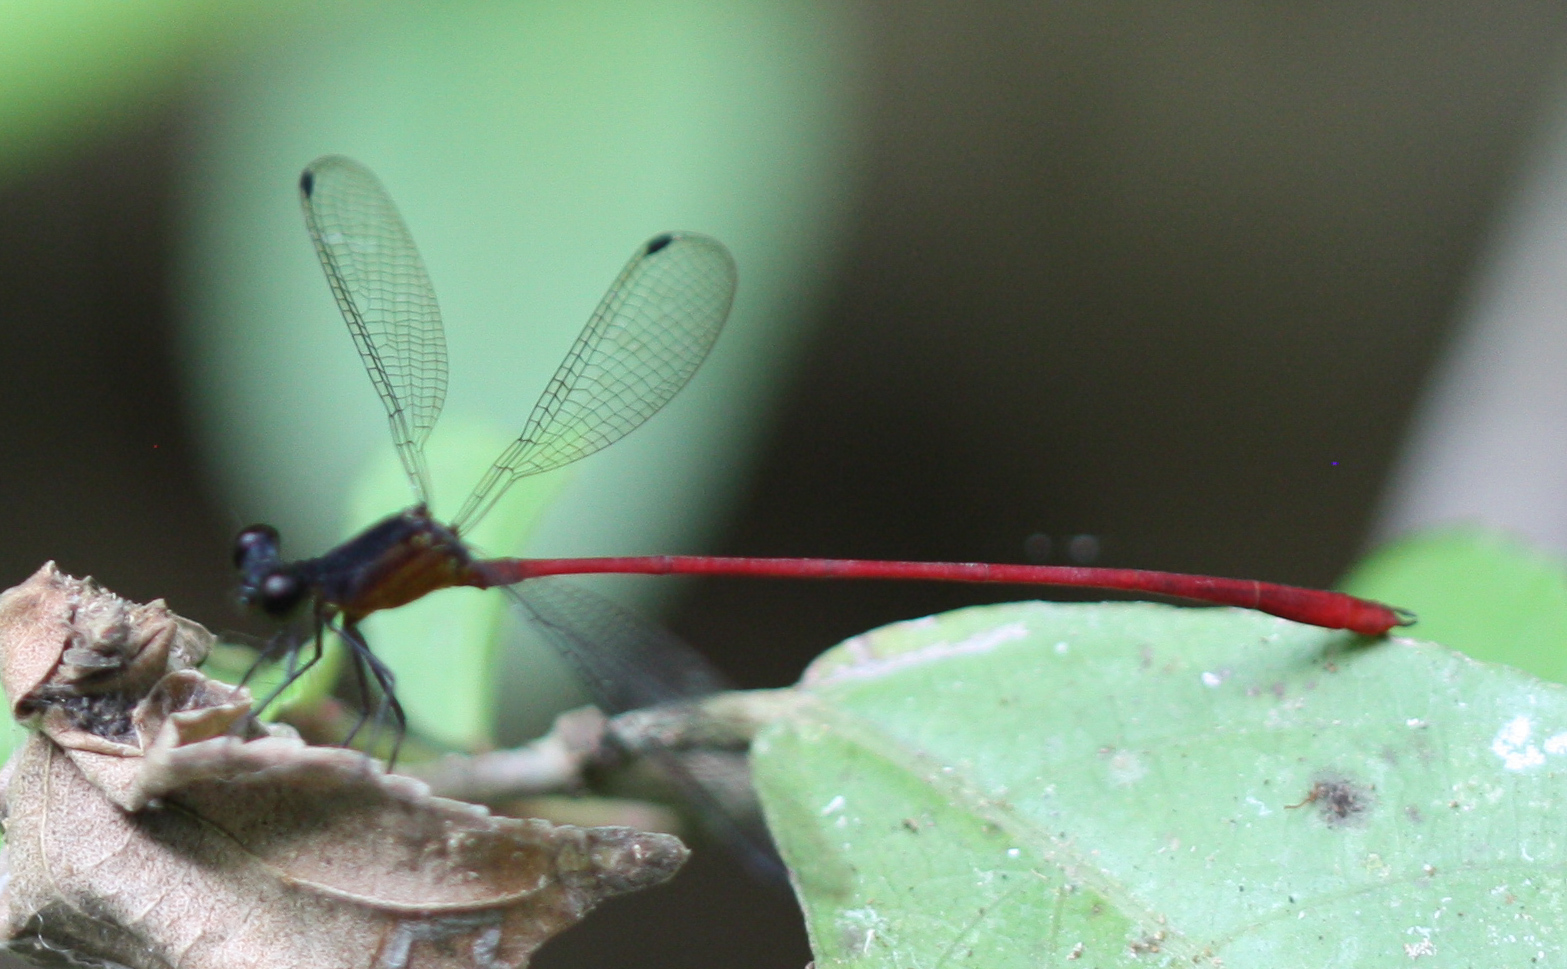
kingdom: Animalia
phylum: Arthropoda
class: Insecta
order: Odonata
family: Heteragrionidae
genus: Heteragrion
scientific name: Heteragrion erythrogastrum
